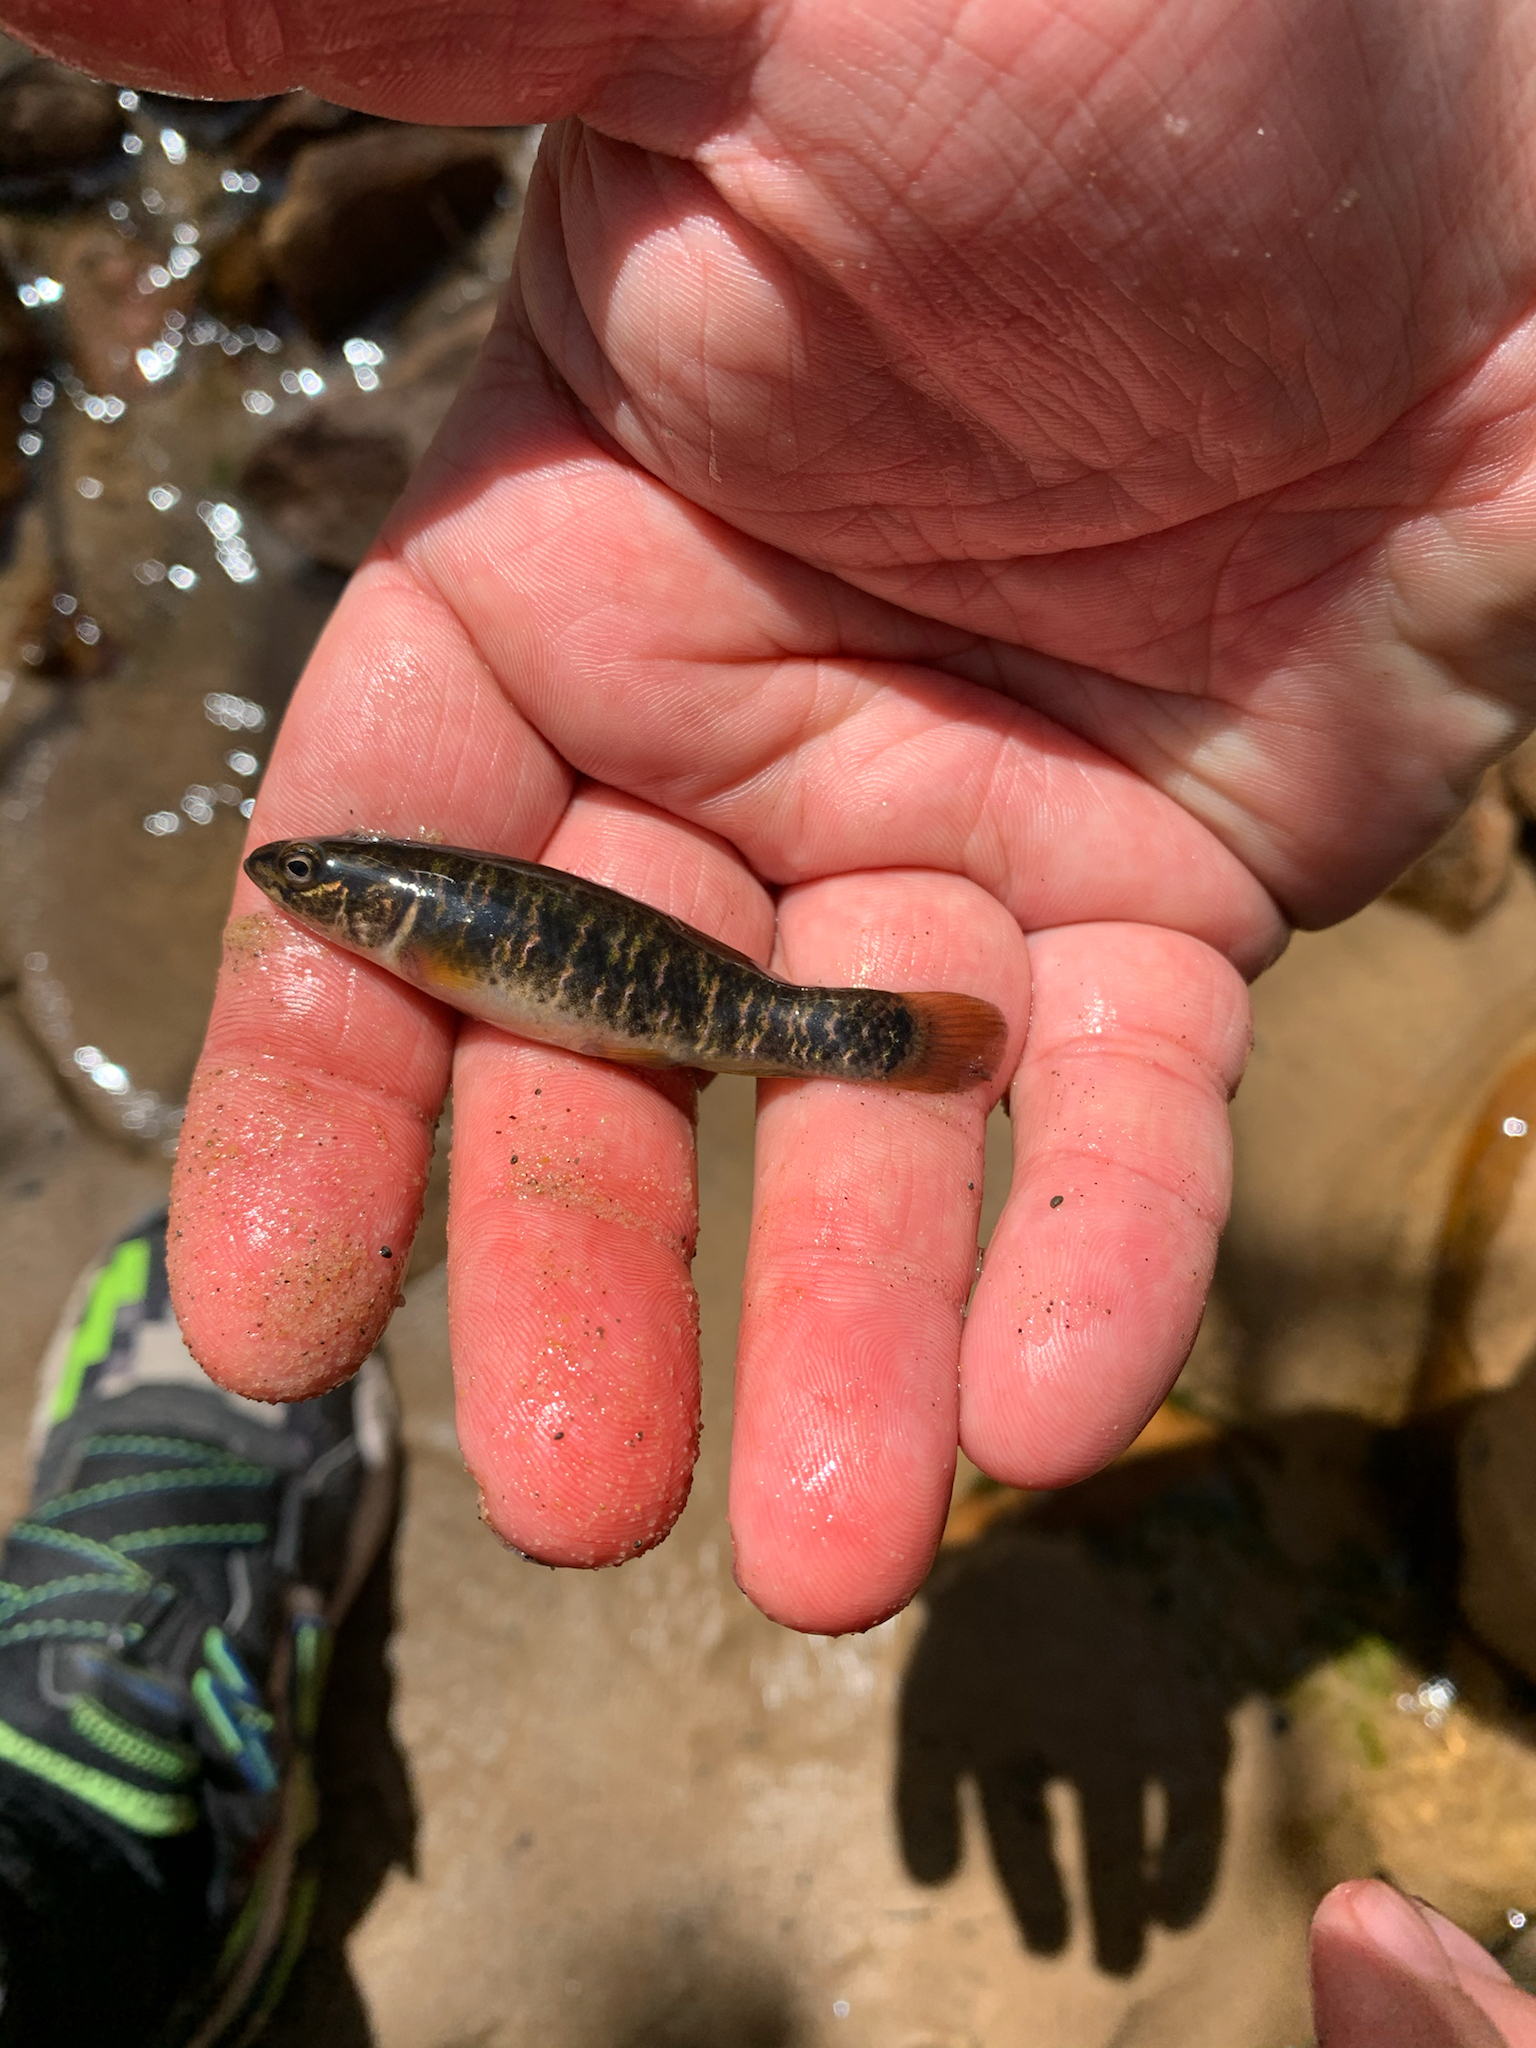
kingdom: Animalia
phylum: Chordata
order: Esociformes
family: Umbridae
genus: Umbra
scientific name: Umbra limi
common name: Central mudminnow
